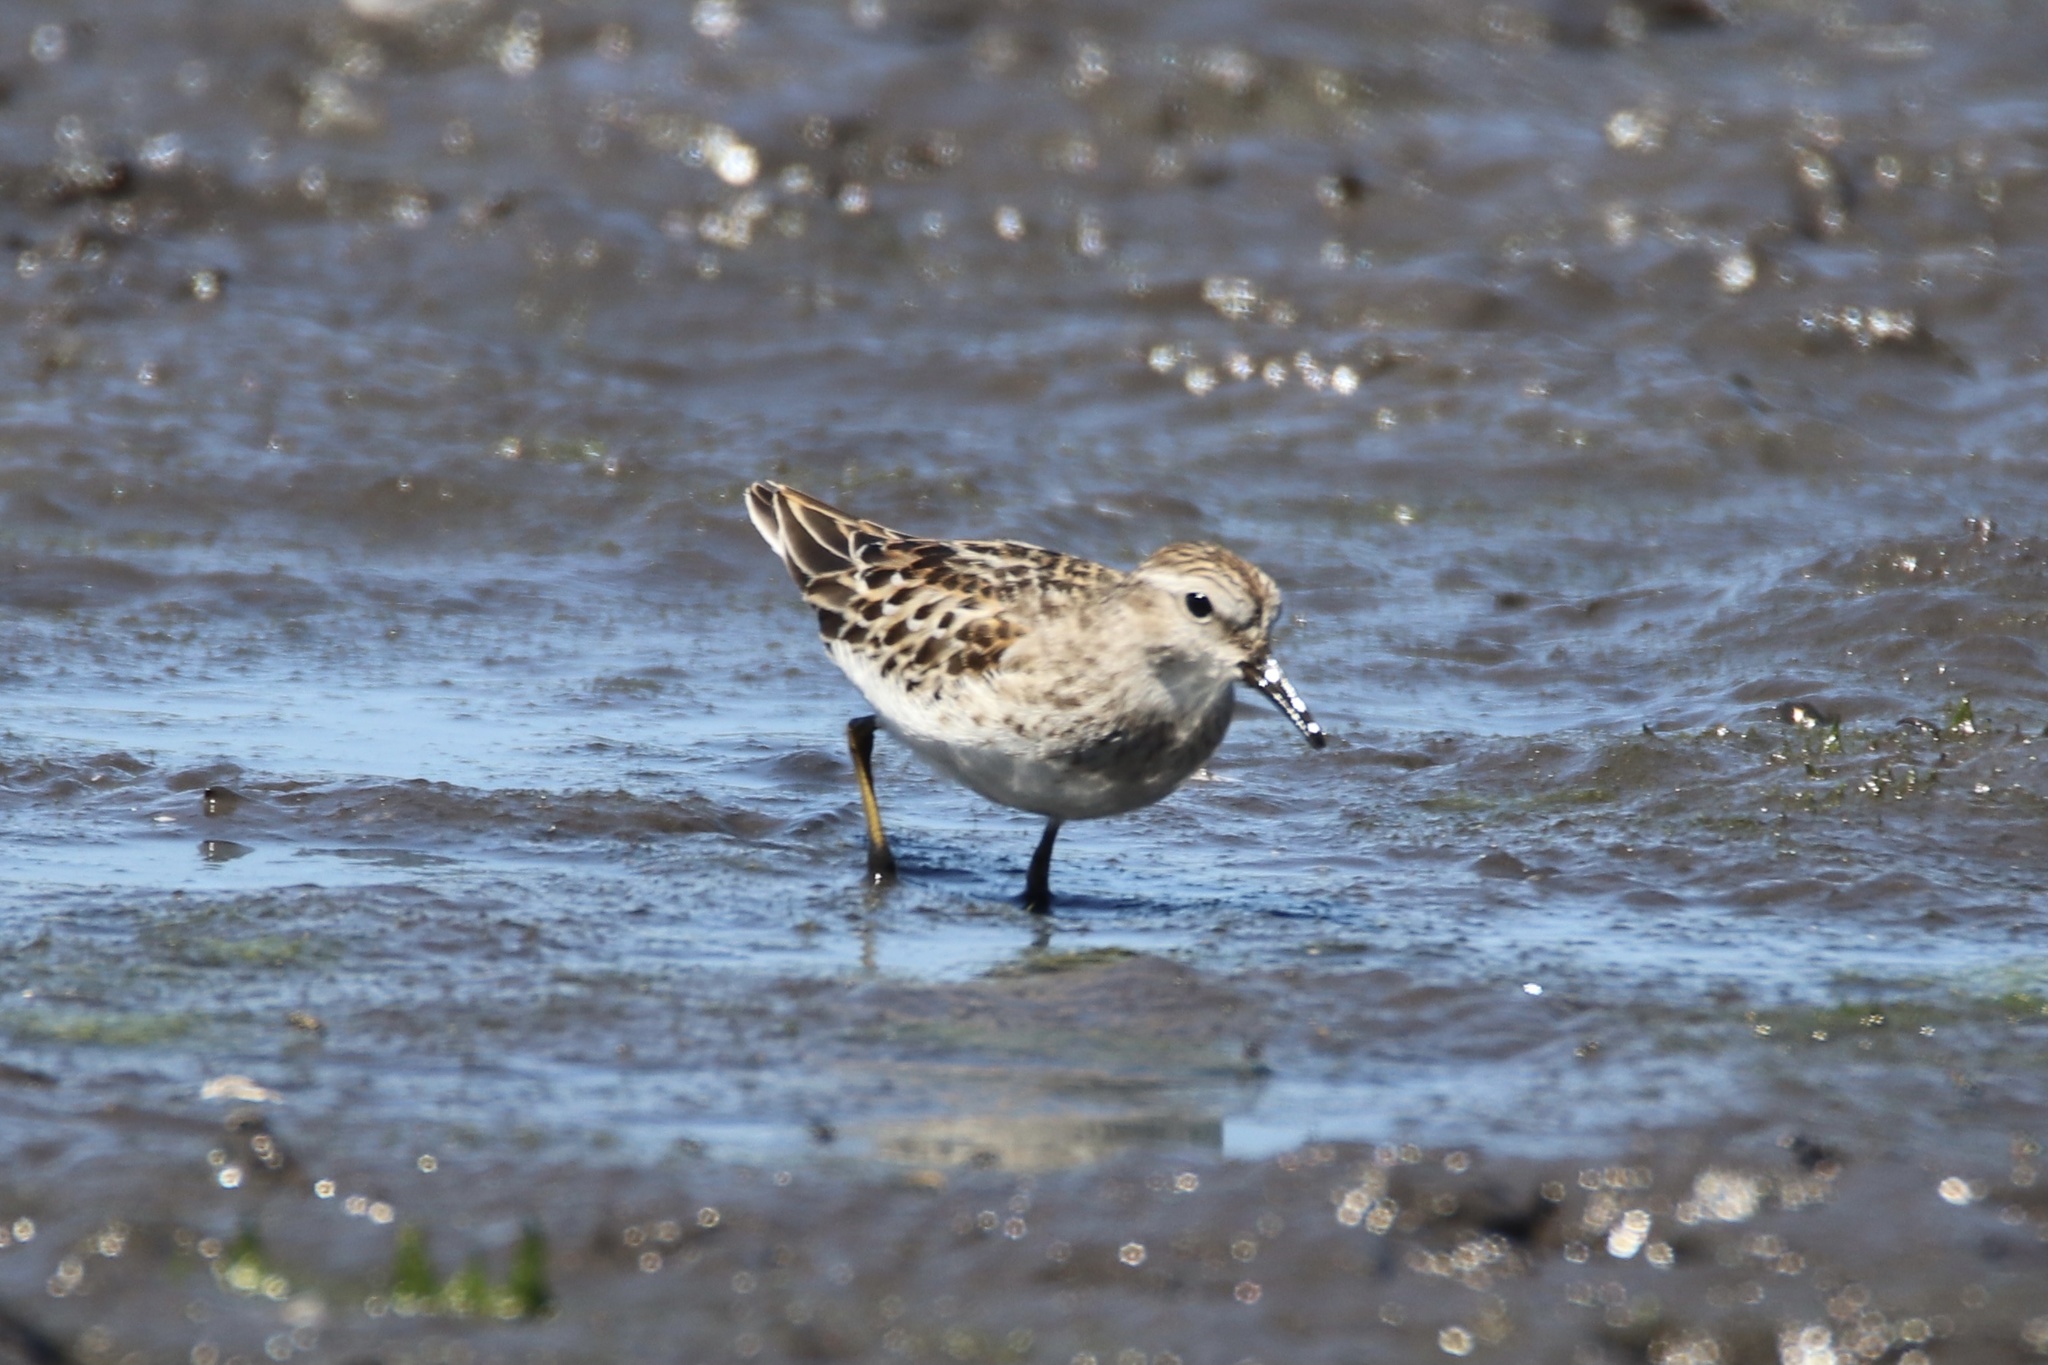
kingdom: Animalia
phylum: Chordata
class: Aves
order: Charadriiformes
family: Scolopacidae
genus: Calidris
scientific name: Calidris minutilla
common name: Least sandpiper
